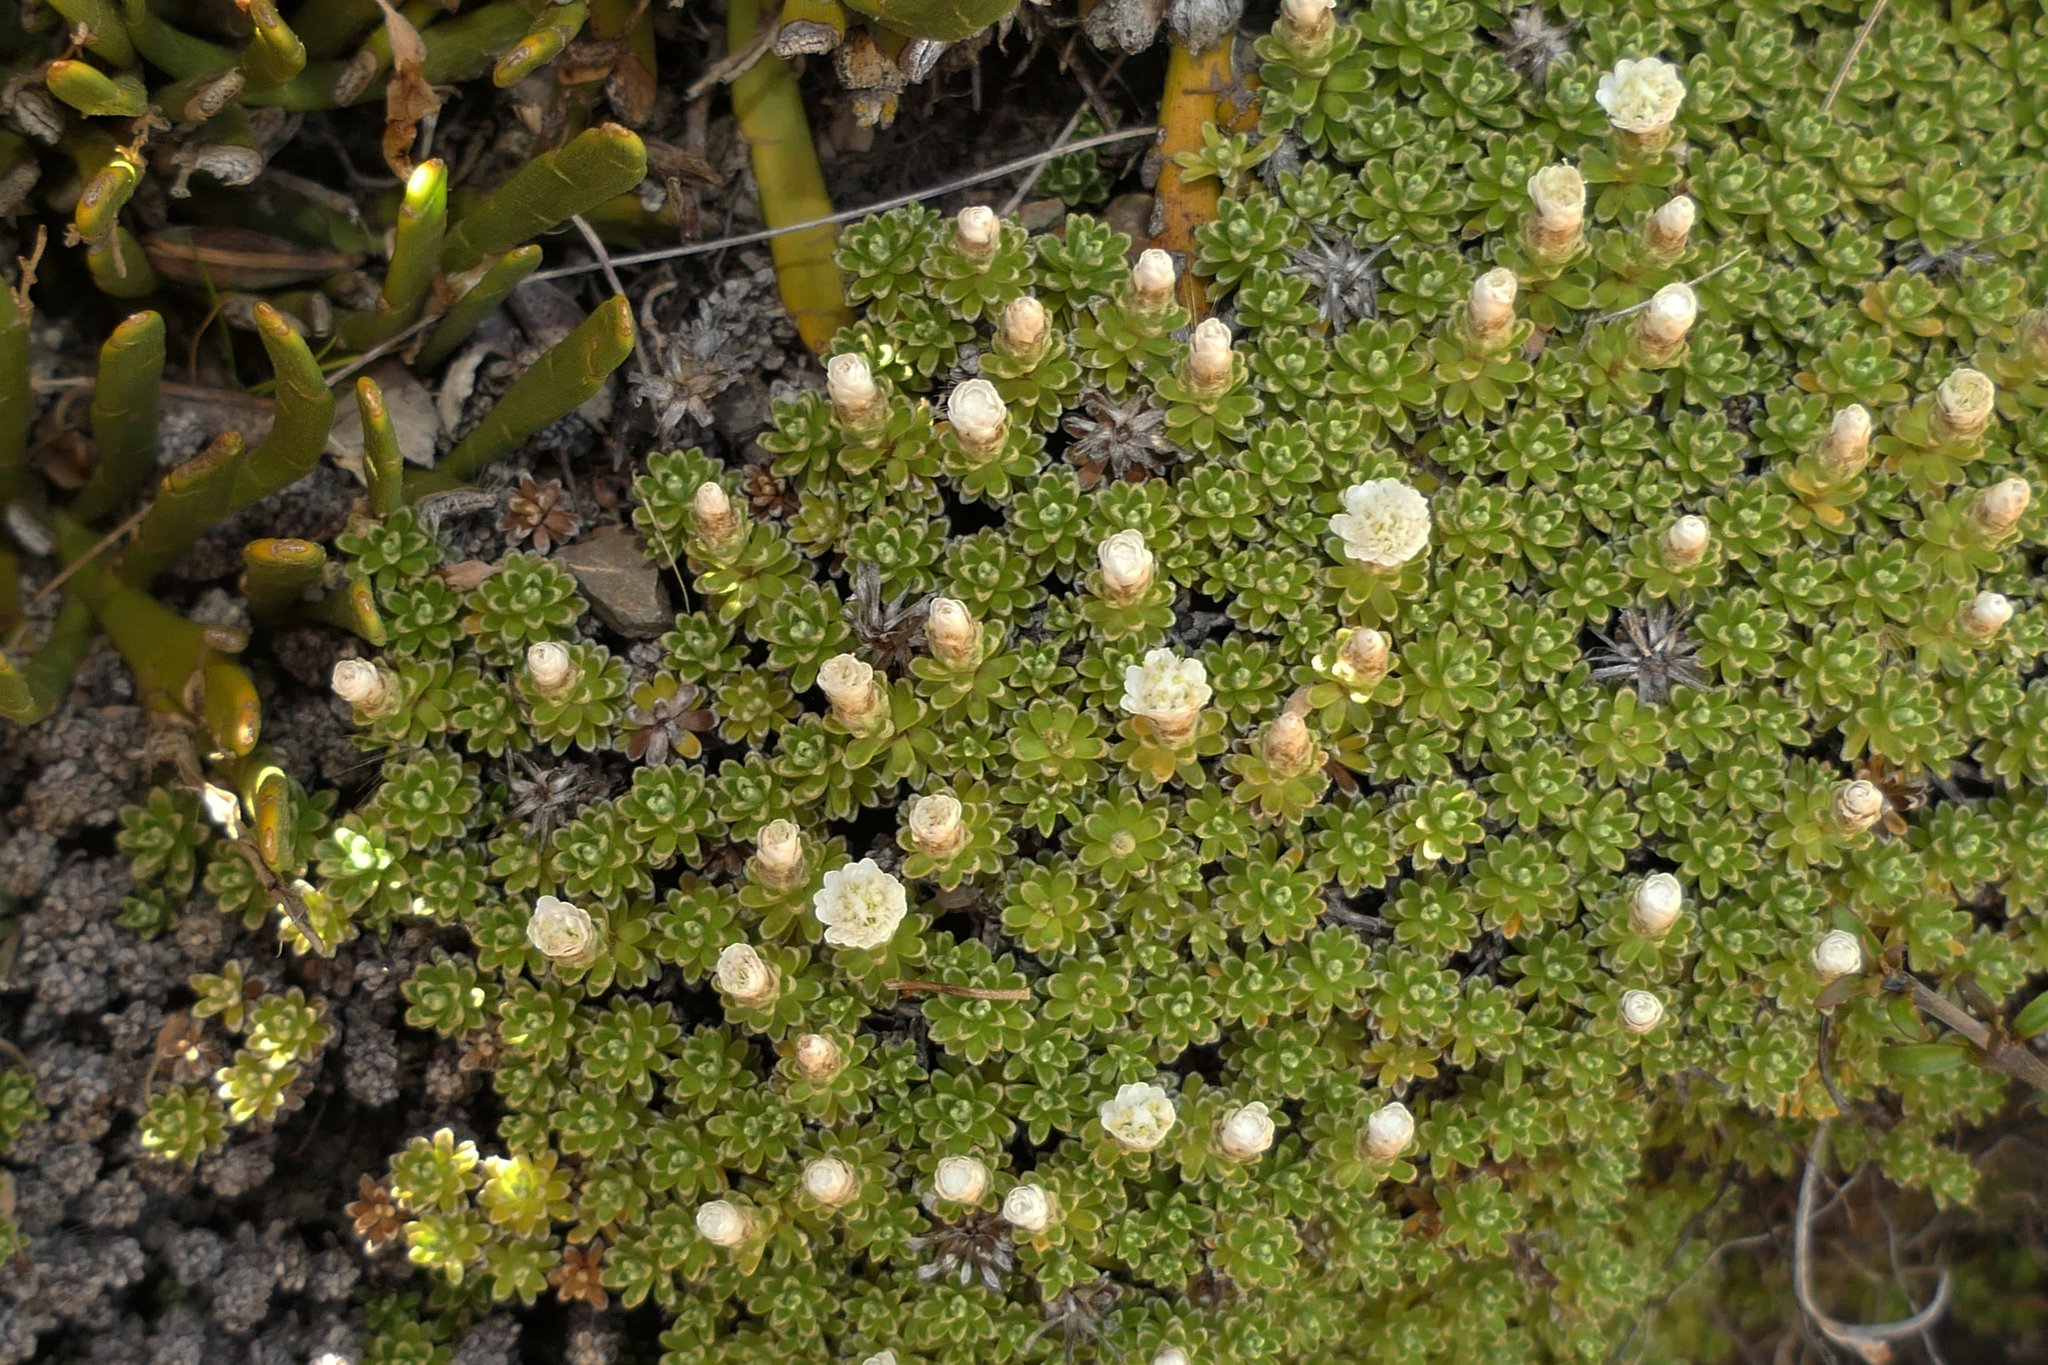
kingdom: Plantae
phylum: Tracheophyta
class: Magnoliopsida
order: Asterales
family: Asteraceae
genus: Raoulia
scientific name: Raoulia subsericea
